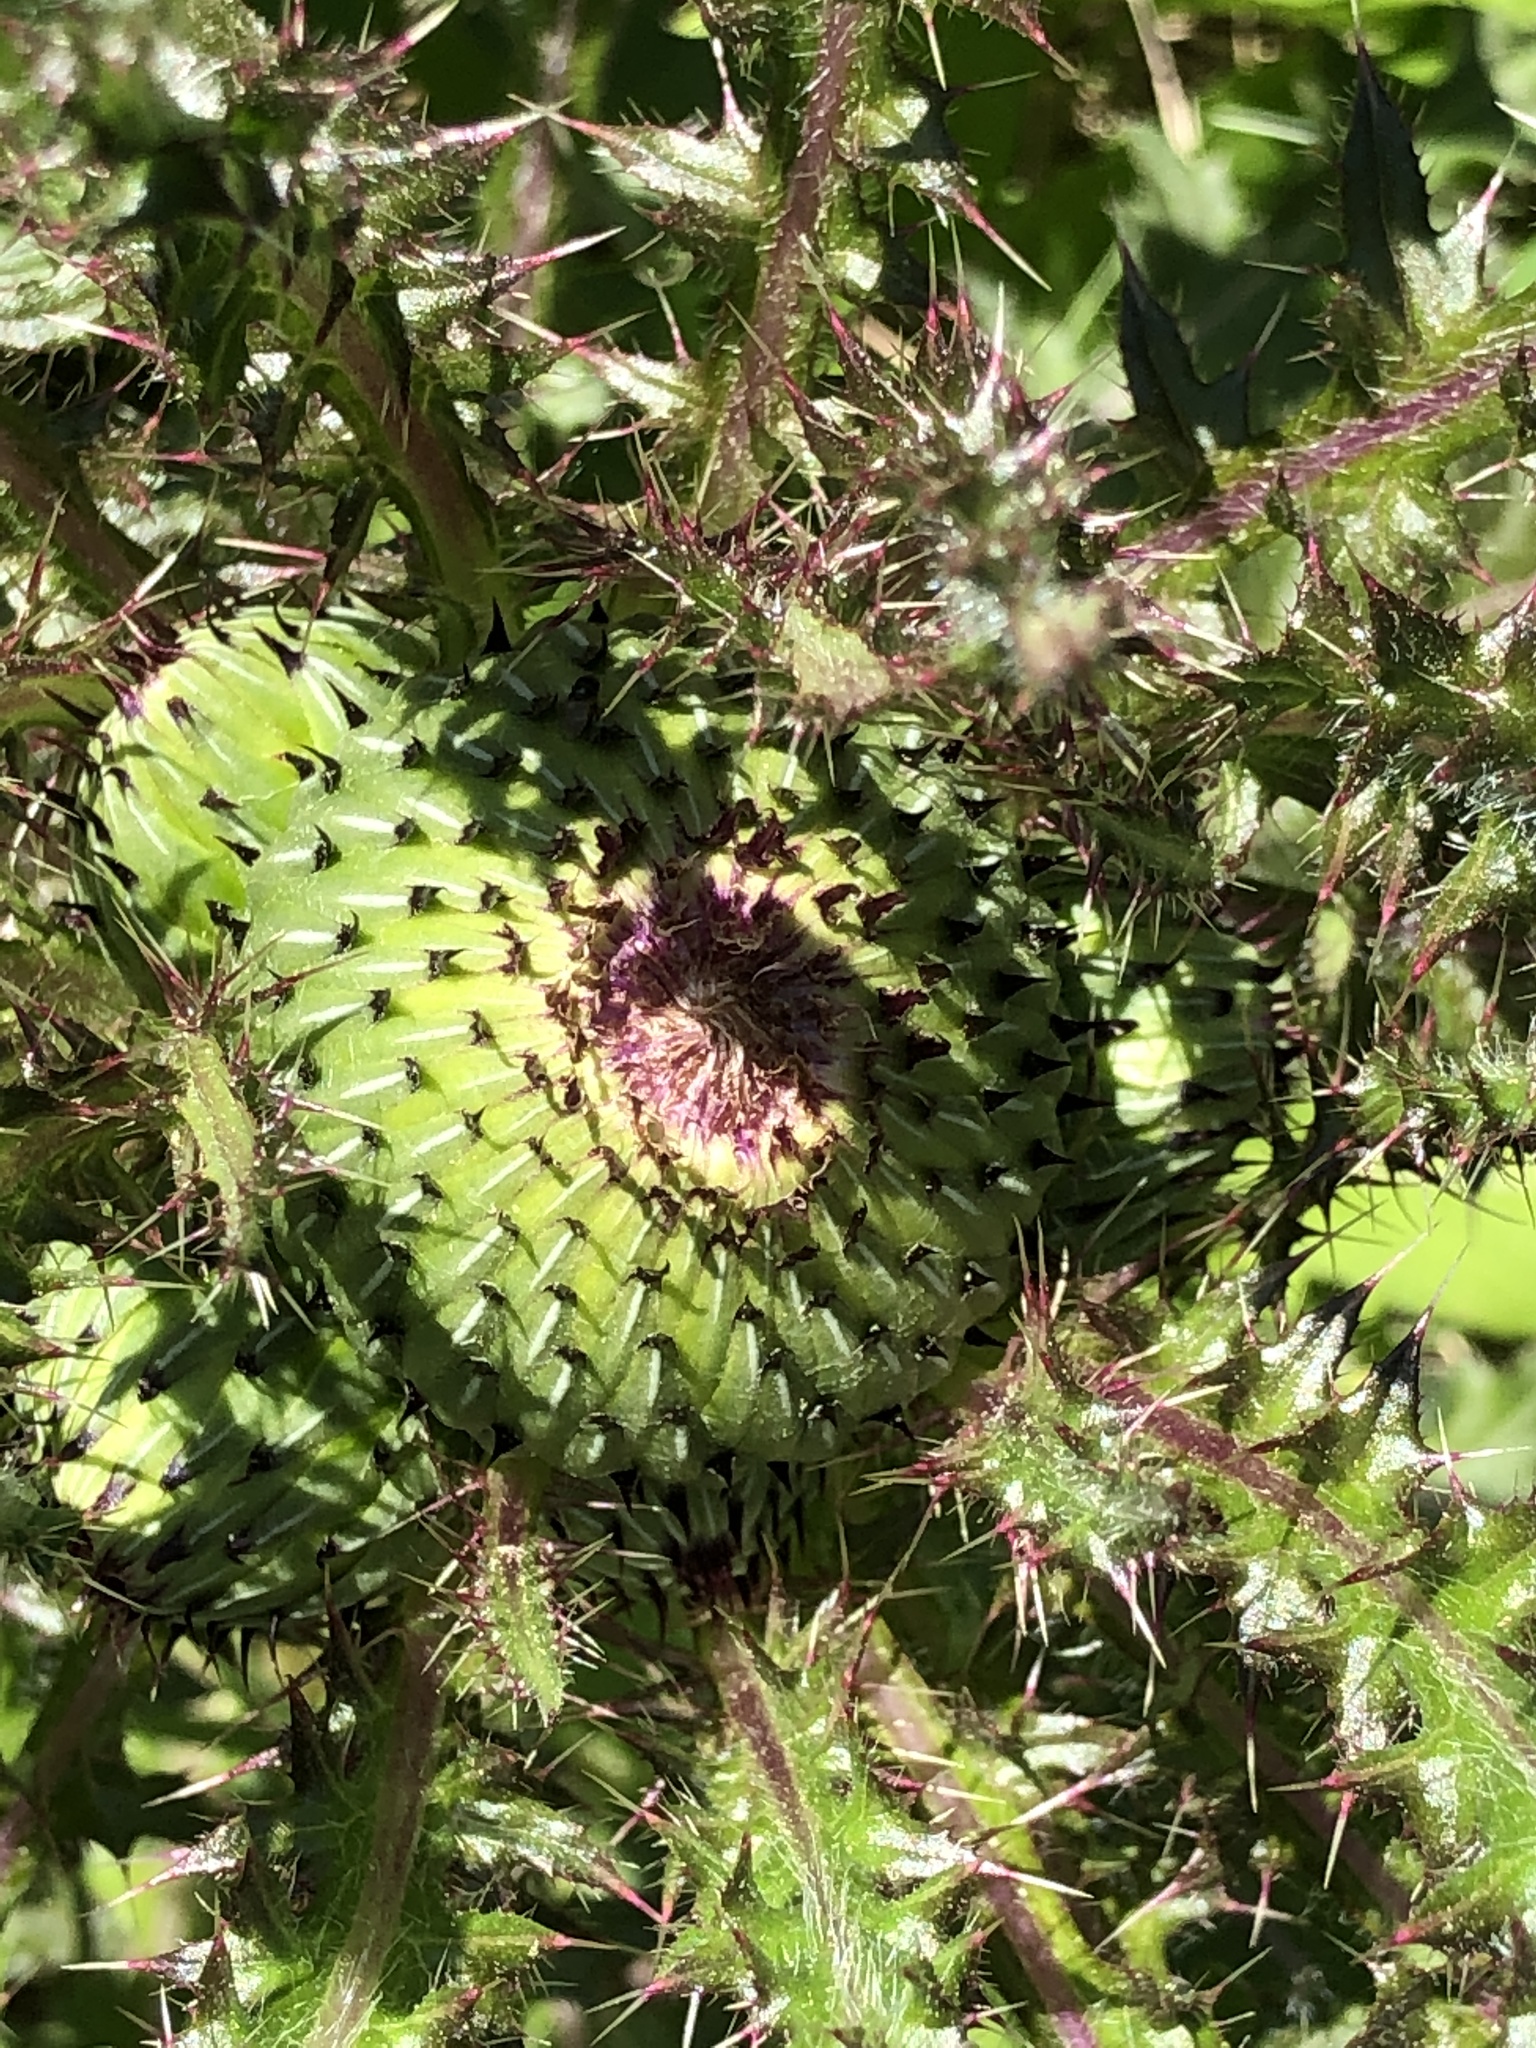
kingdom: Plantae
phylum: Tracheophyta
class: Magnoliopsida
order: Asterales
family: Asteraceae
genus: Cirsium
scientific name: Cirsium drummondii
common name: Drummond's thistle
